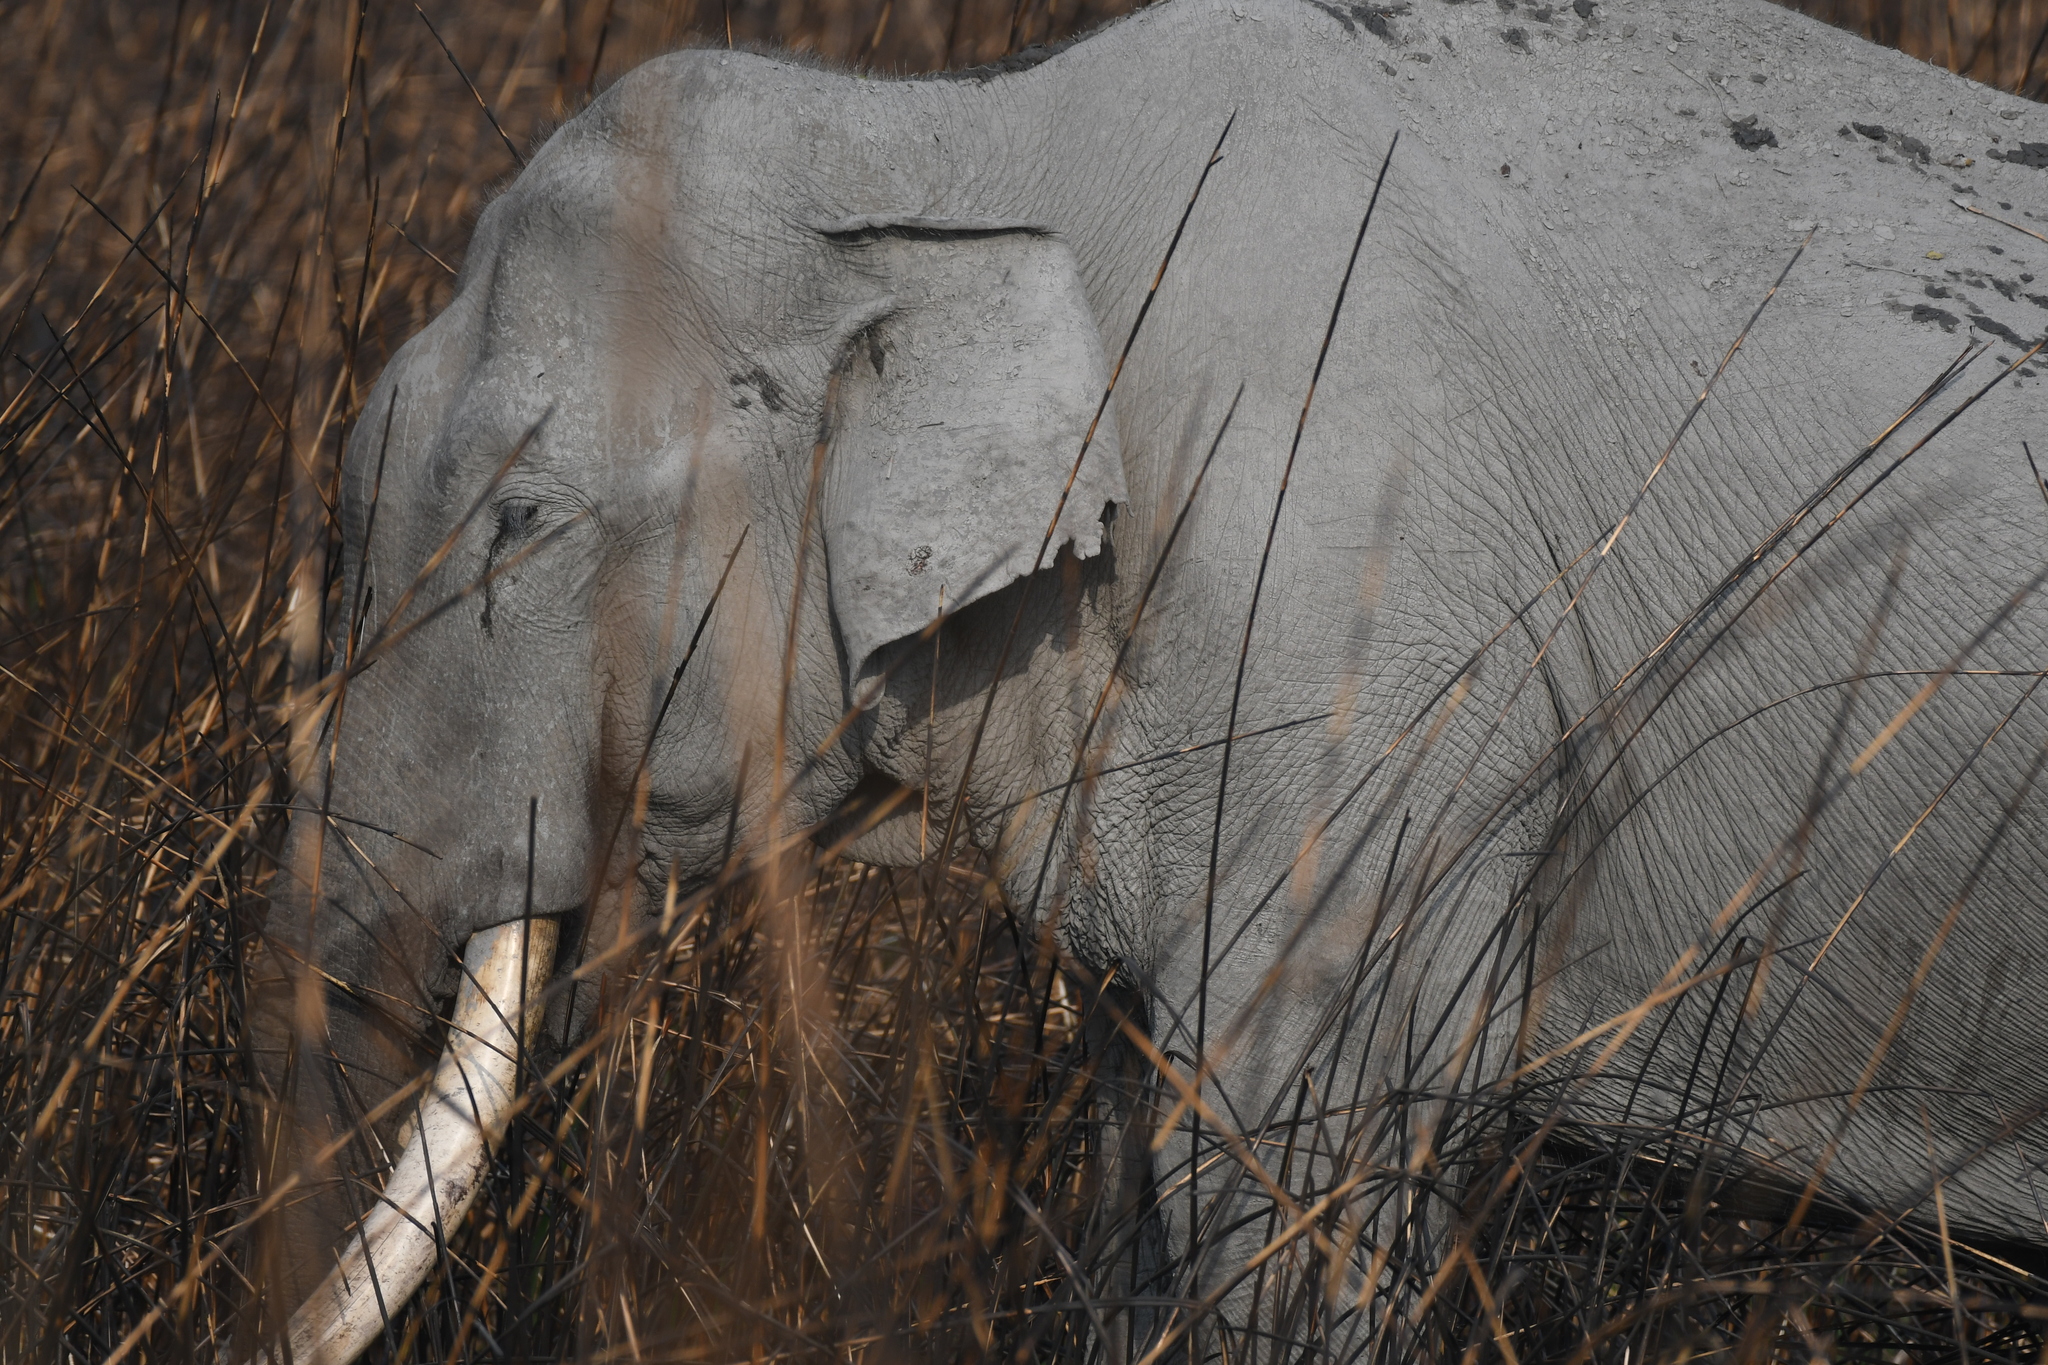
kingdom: Animalia
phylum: Chordata
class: Mammalia
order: Proboscidea
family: Elephantidae
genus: Elephas
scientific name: Elephas maximus
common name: Asian elephant
